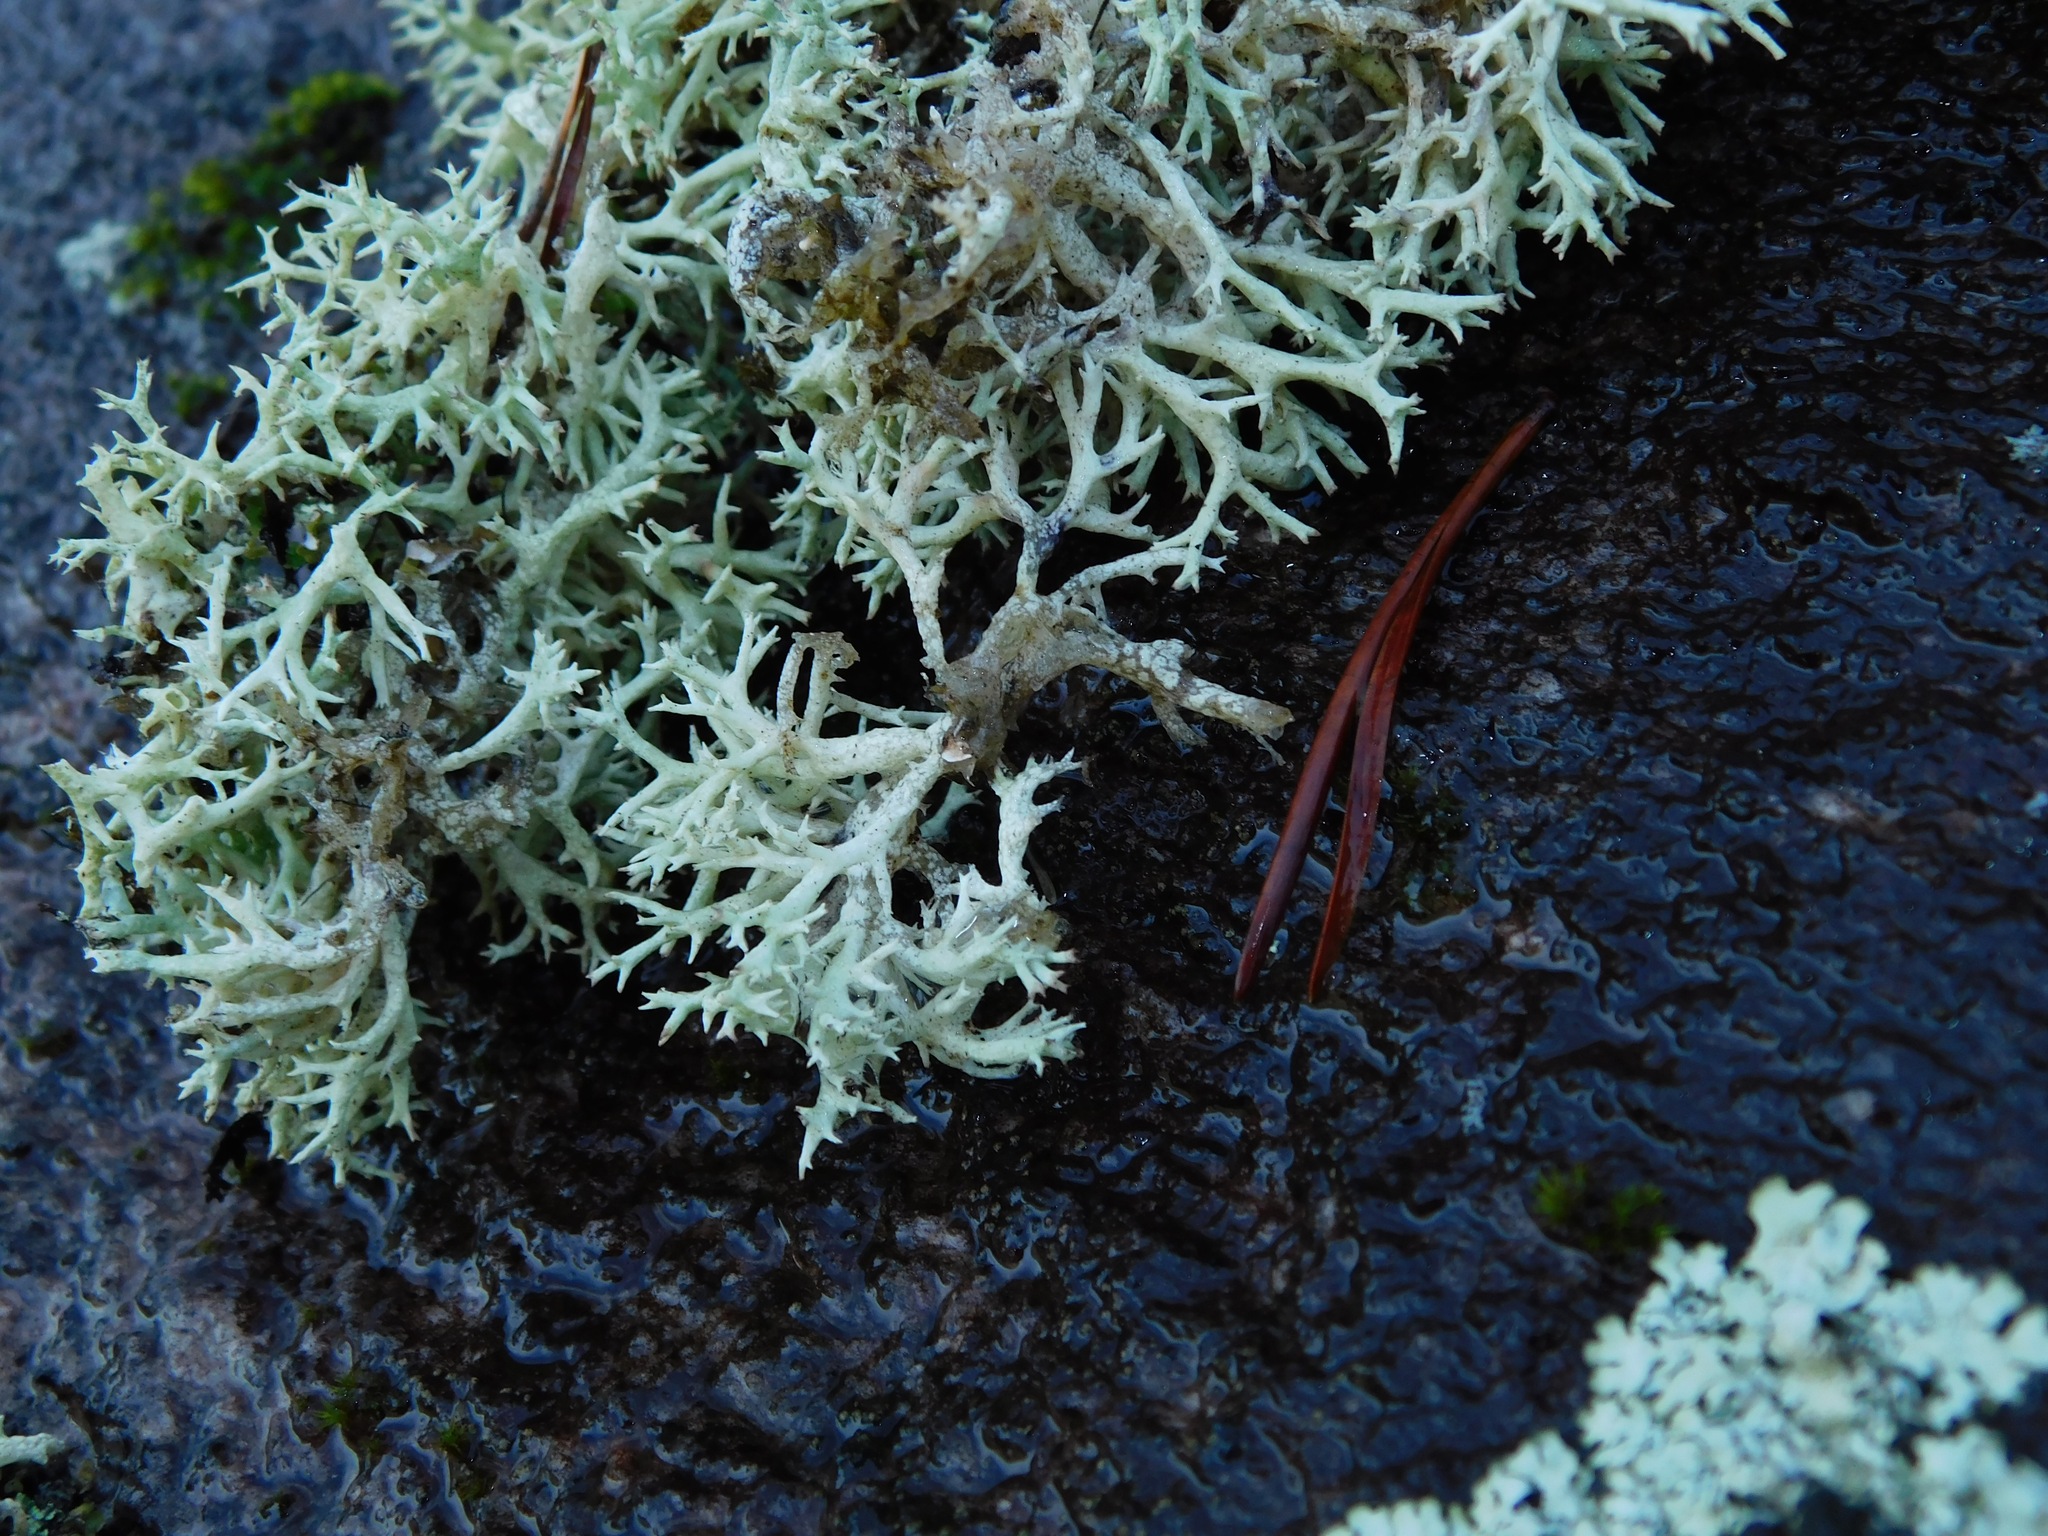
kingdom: Fungi
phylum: Ascomycota
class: Lecanoromycetes
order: Lecanorales
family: Cladoniaceae
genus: Cladonia
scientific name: Cladonia uncialis
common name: Thorn lichen
